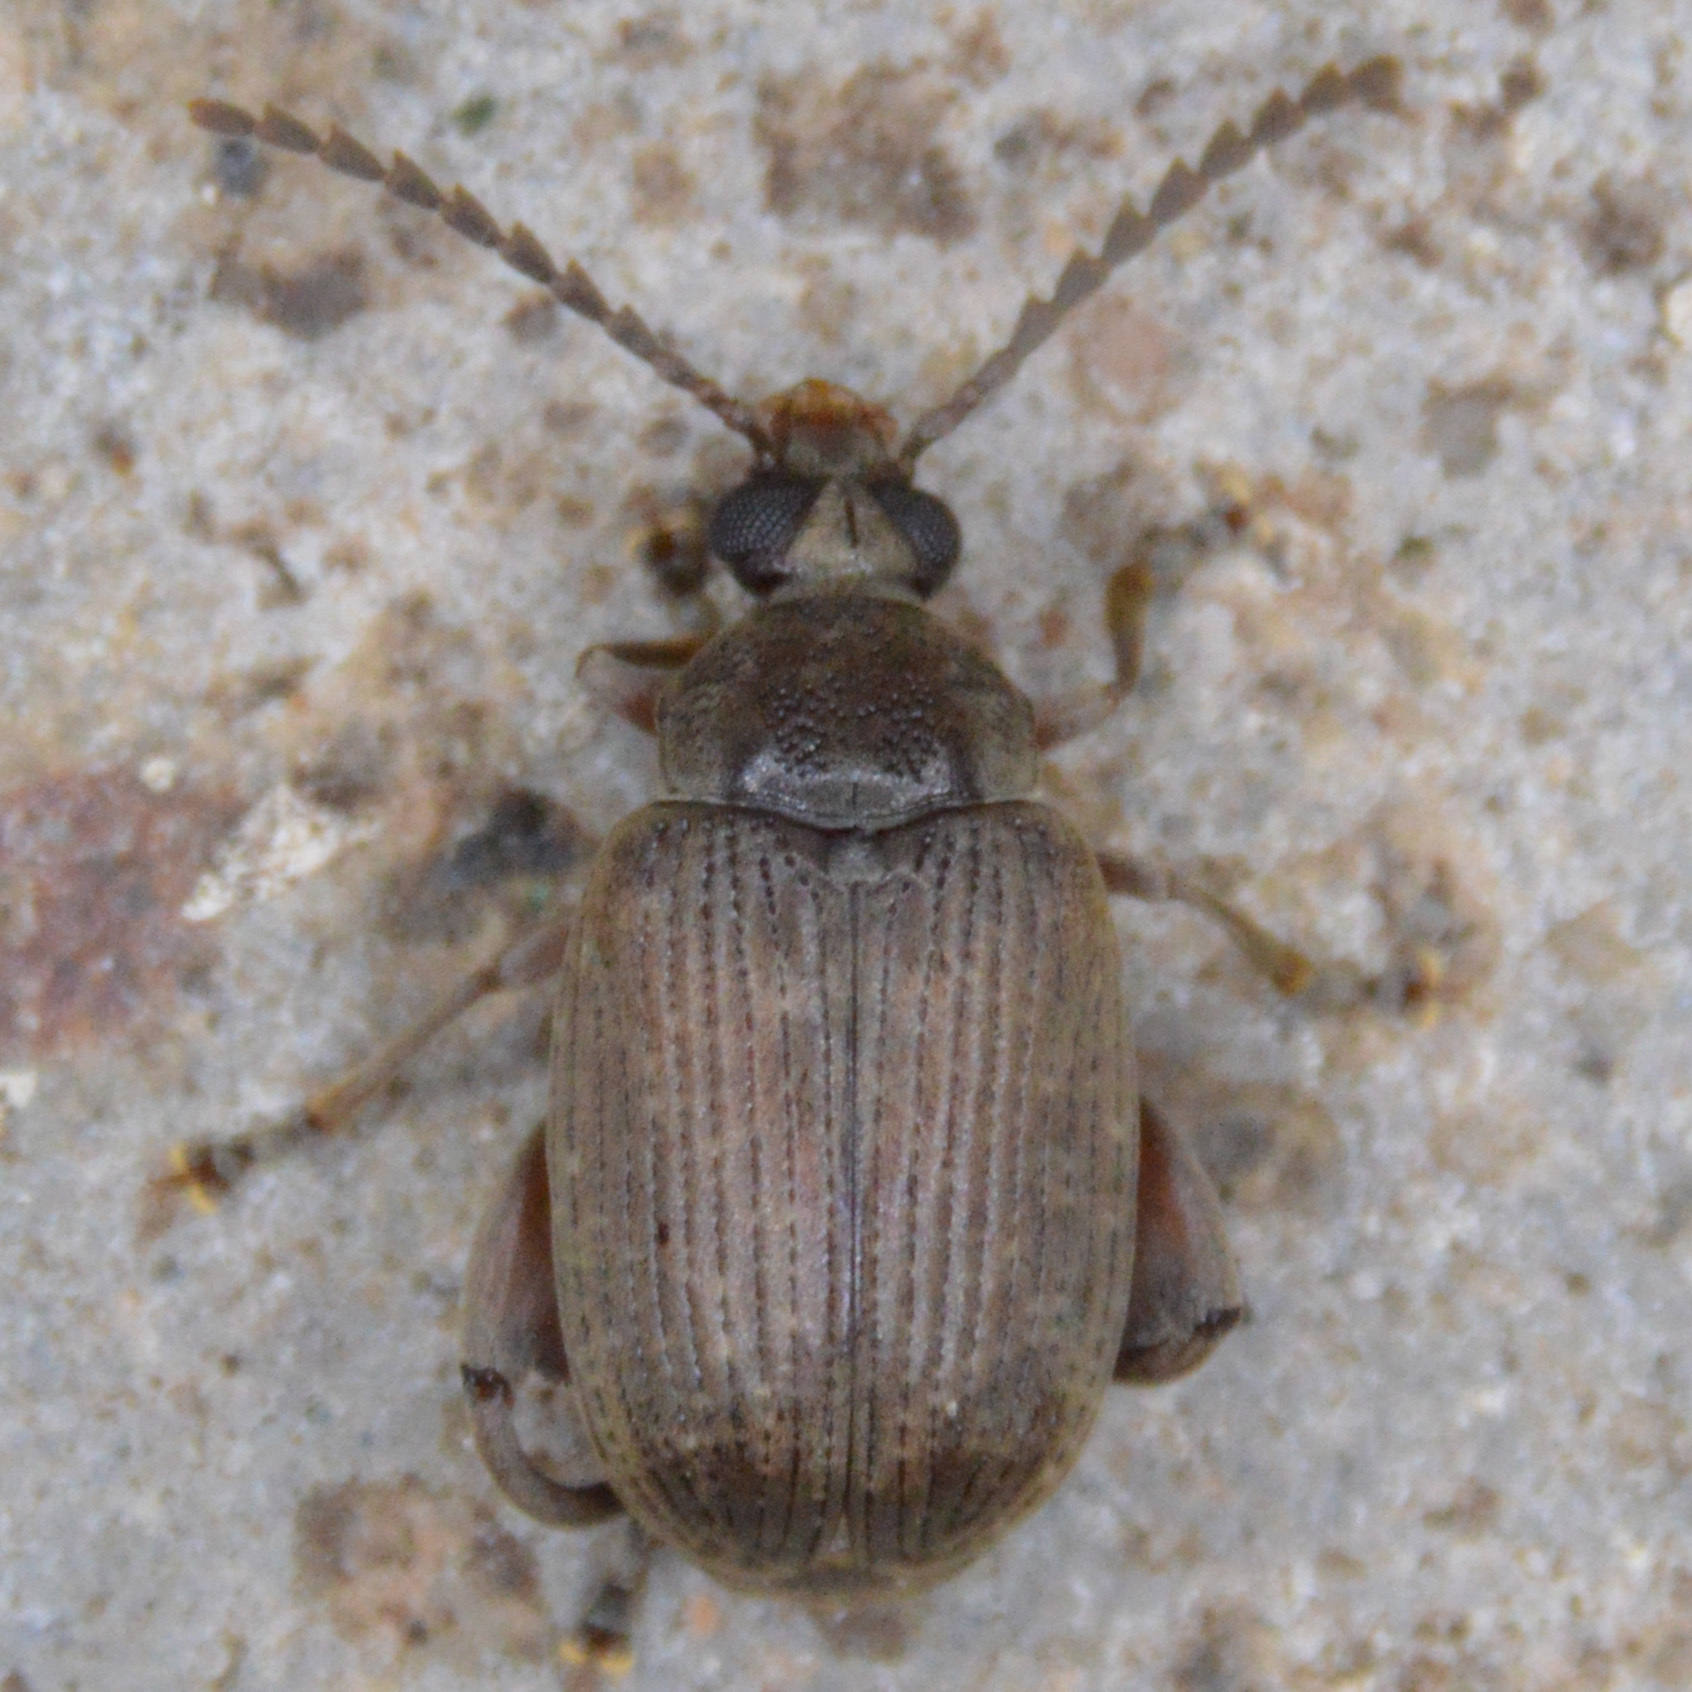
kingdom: Animalia
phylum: Arthropoda
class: Insecta
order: Coleoptera
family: Chrysomelidae
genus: Caryobruchus
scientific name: Caryobruchus gleditsiae
